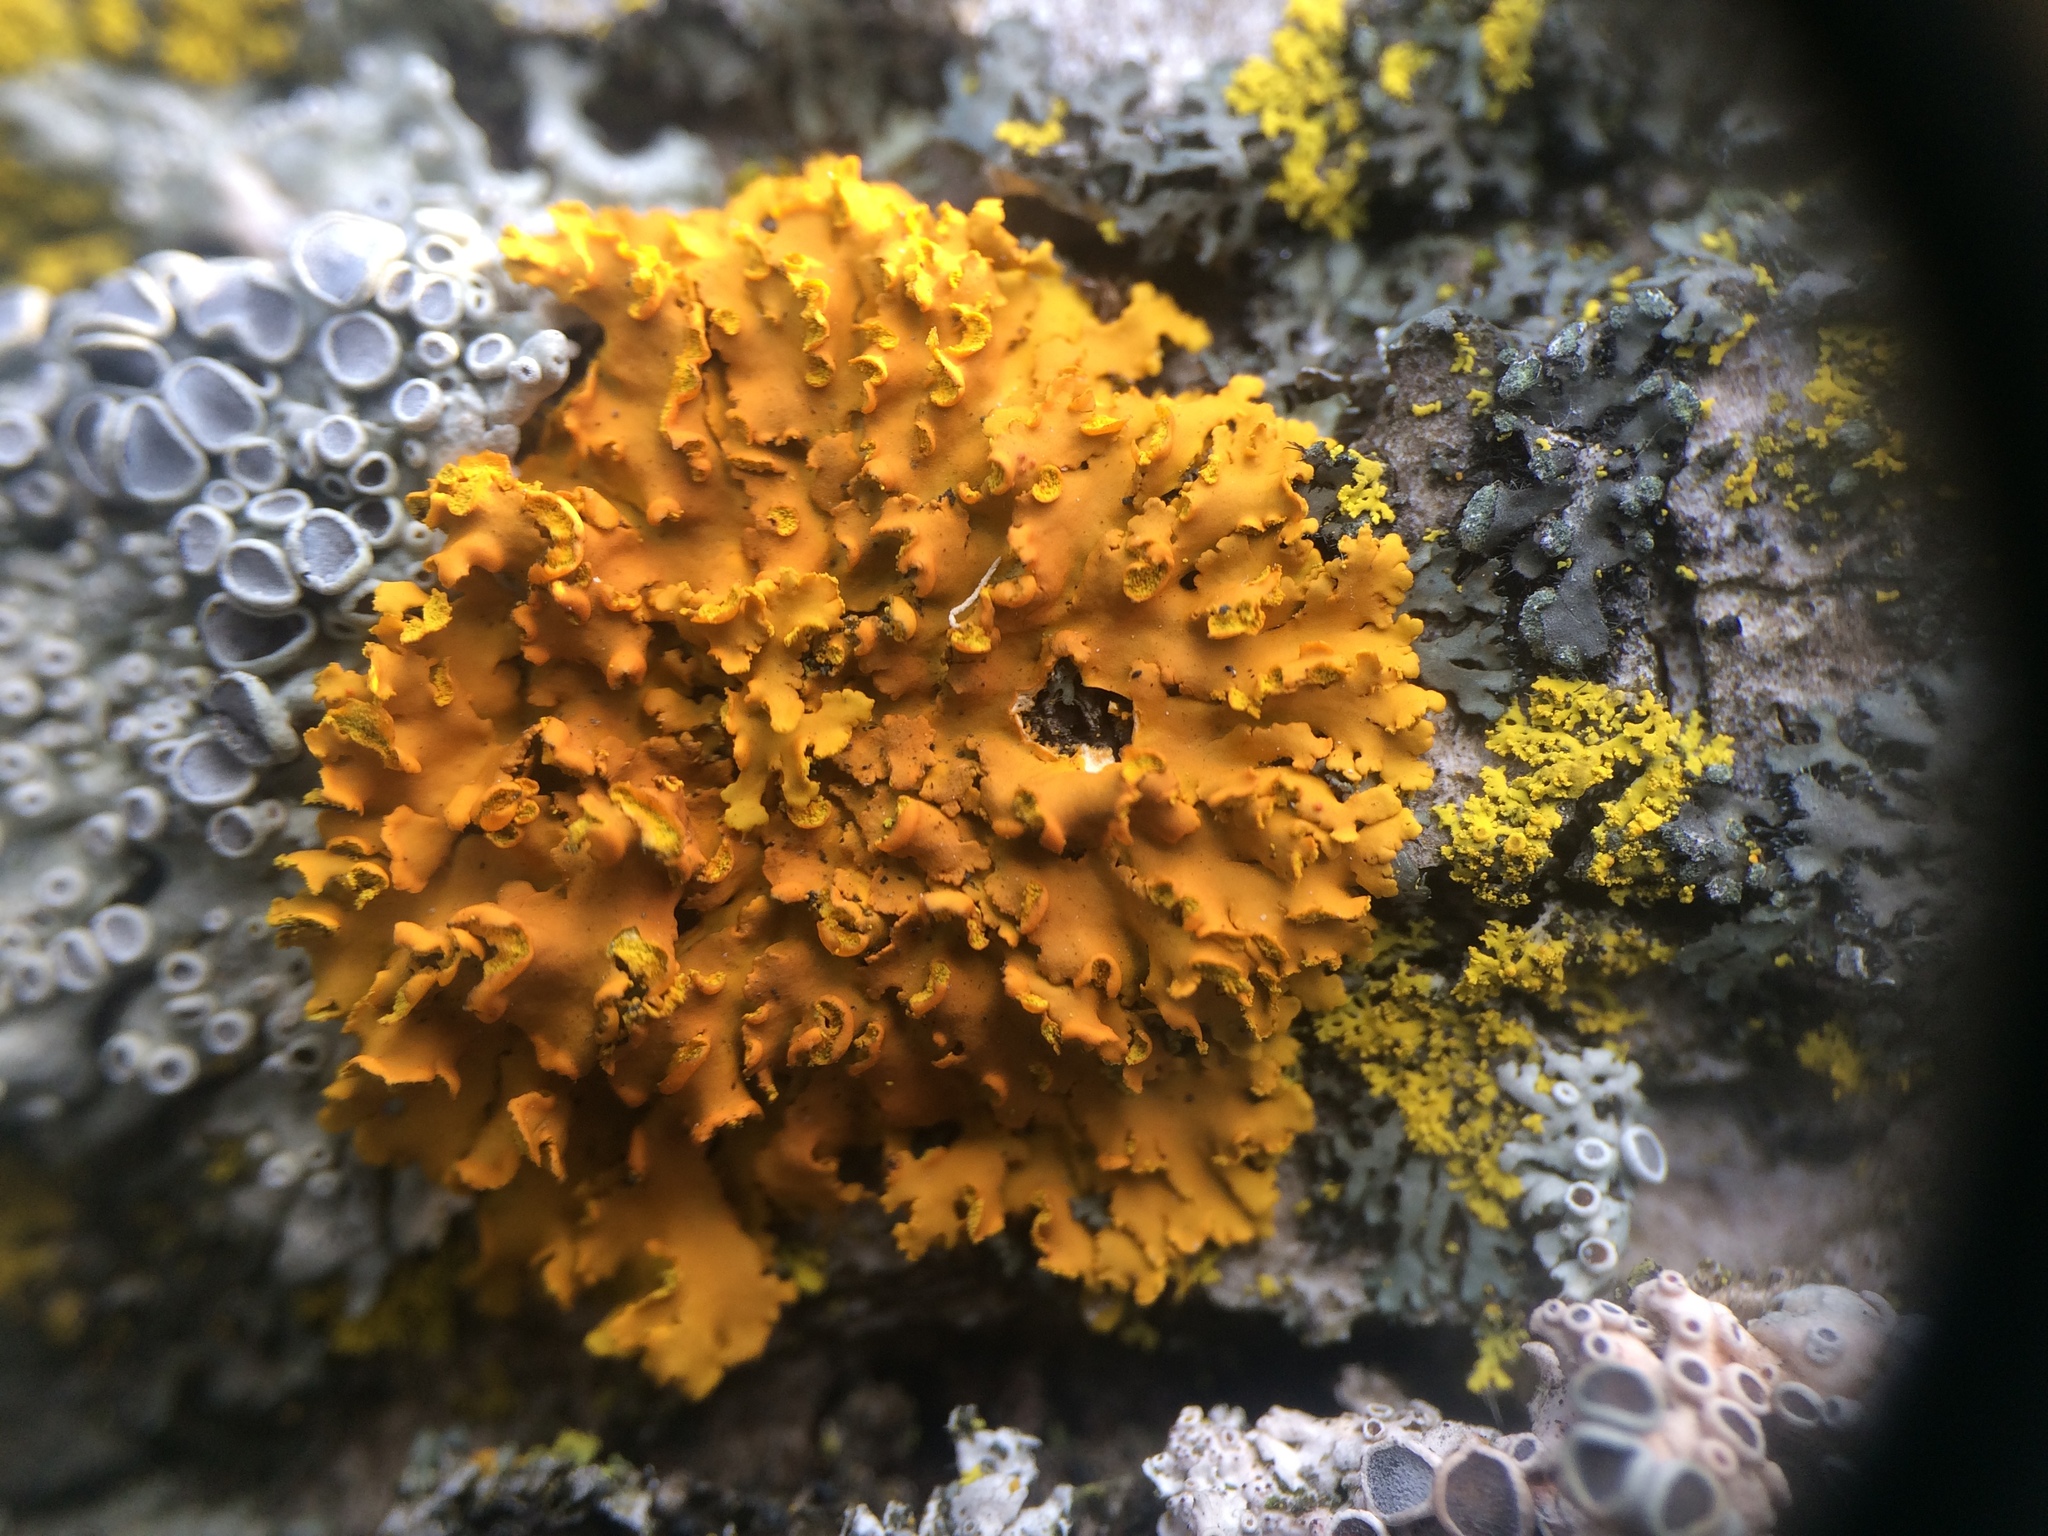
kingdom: Fungi
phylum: Ascomycota
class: Lecanoromycetes
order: Teloschistales
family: Teloschistaceae
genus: Oxneria
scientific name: Oxneria fallax
